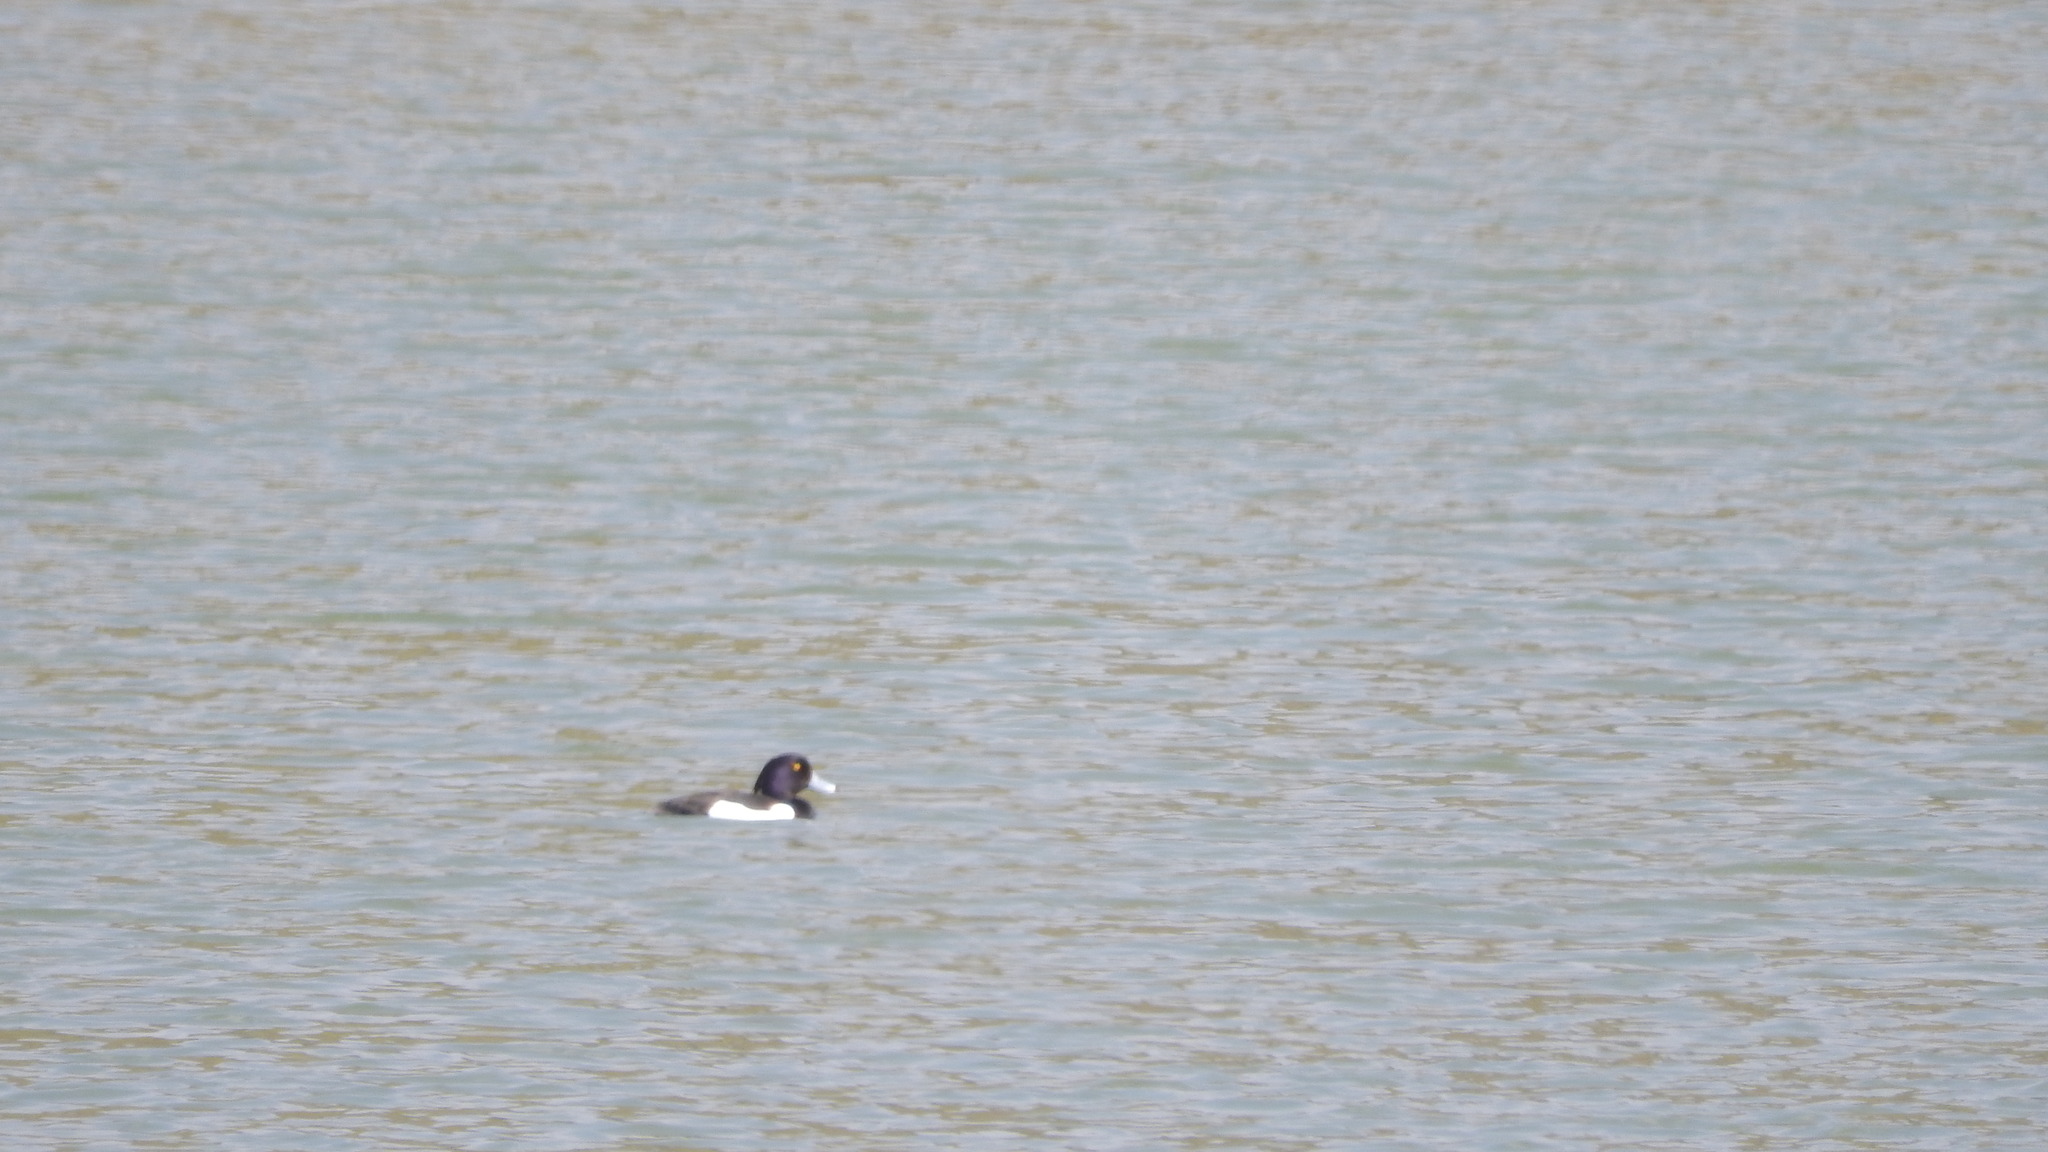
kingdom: Animalia
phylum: Chordata
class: Aves
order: Anseriformes
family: Anatidae
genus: Aythya
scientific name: Aythya fuligula
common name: Tufted duck
